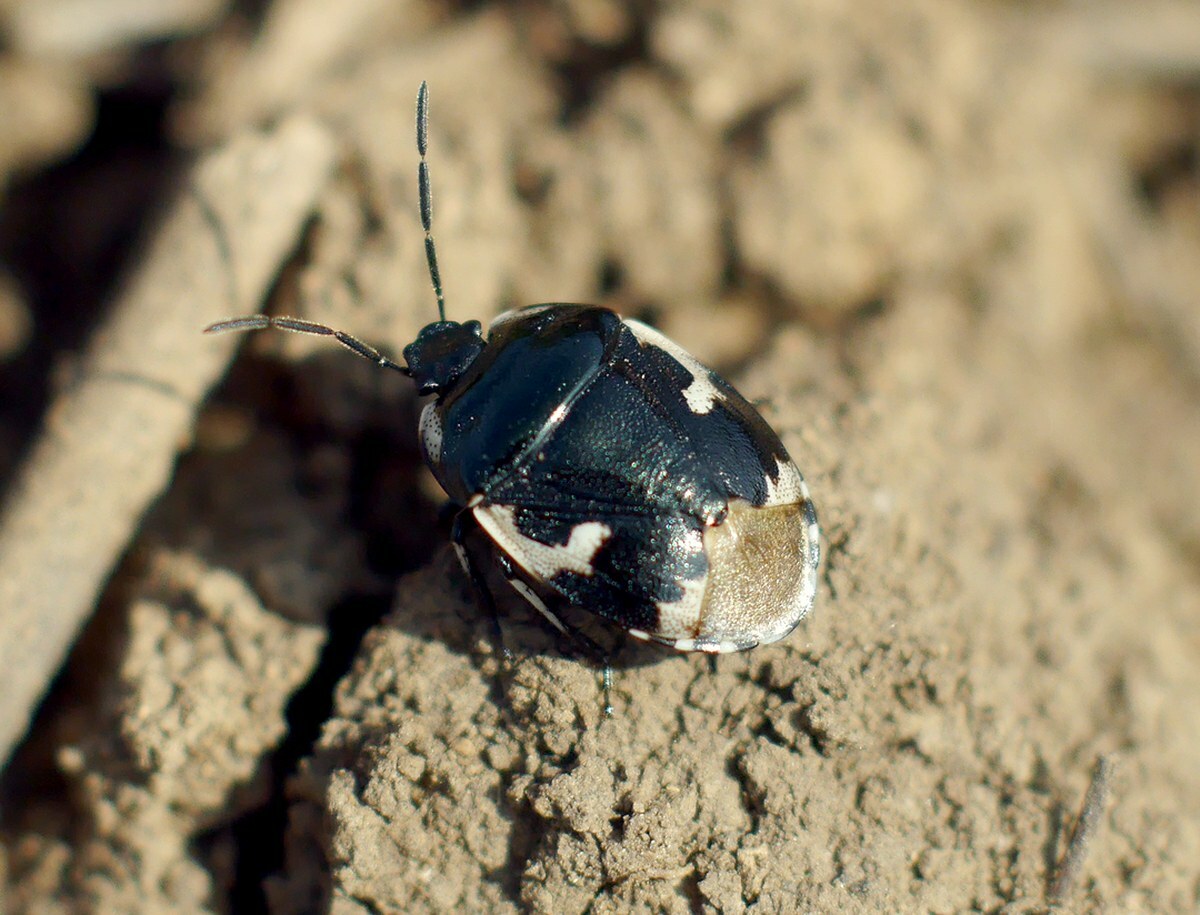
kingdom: Animalia
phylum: Arthropoda
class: Insecta
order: Hemiptera
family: Cydnidae
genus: Tritomegas
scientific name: Tritomegas bicolor
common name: Pied shieldbug
